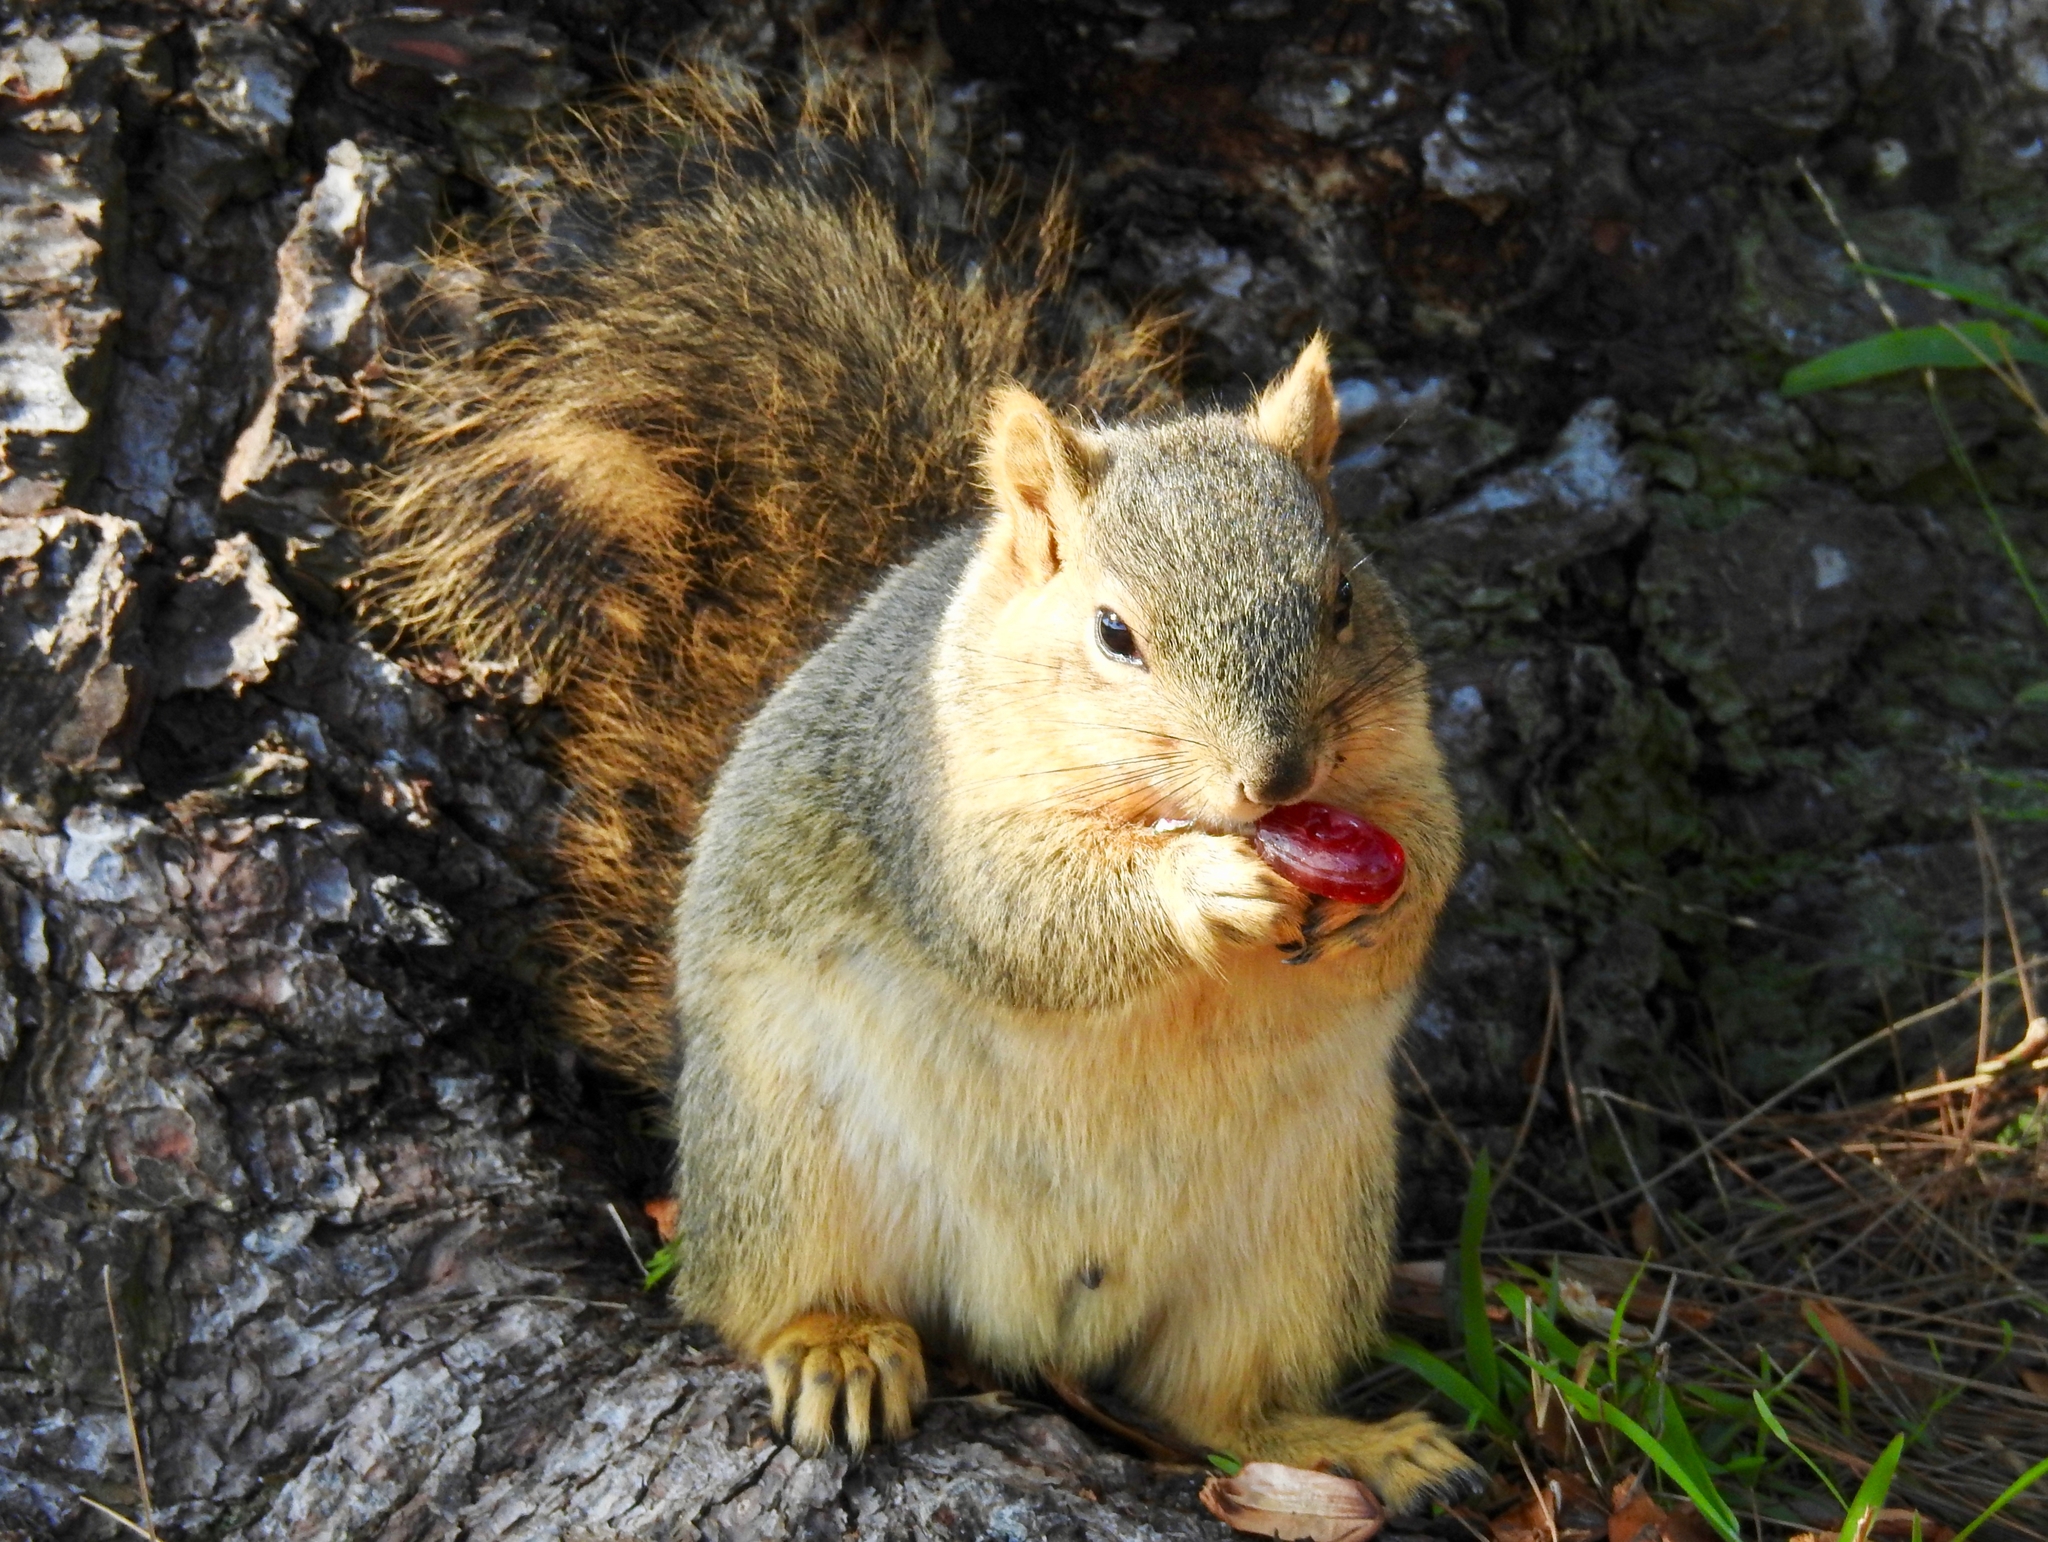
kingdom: Animalia
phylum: Chordata
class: Mammalia
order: Rodentia
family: Sciuridae
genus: Sciurus
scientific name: Sciurus niger
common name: Fox squirrel
